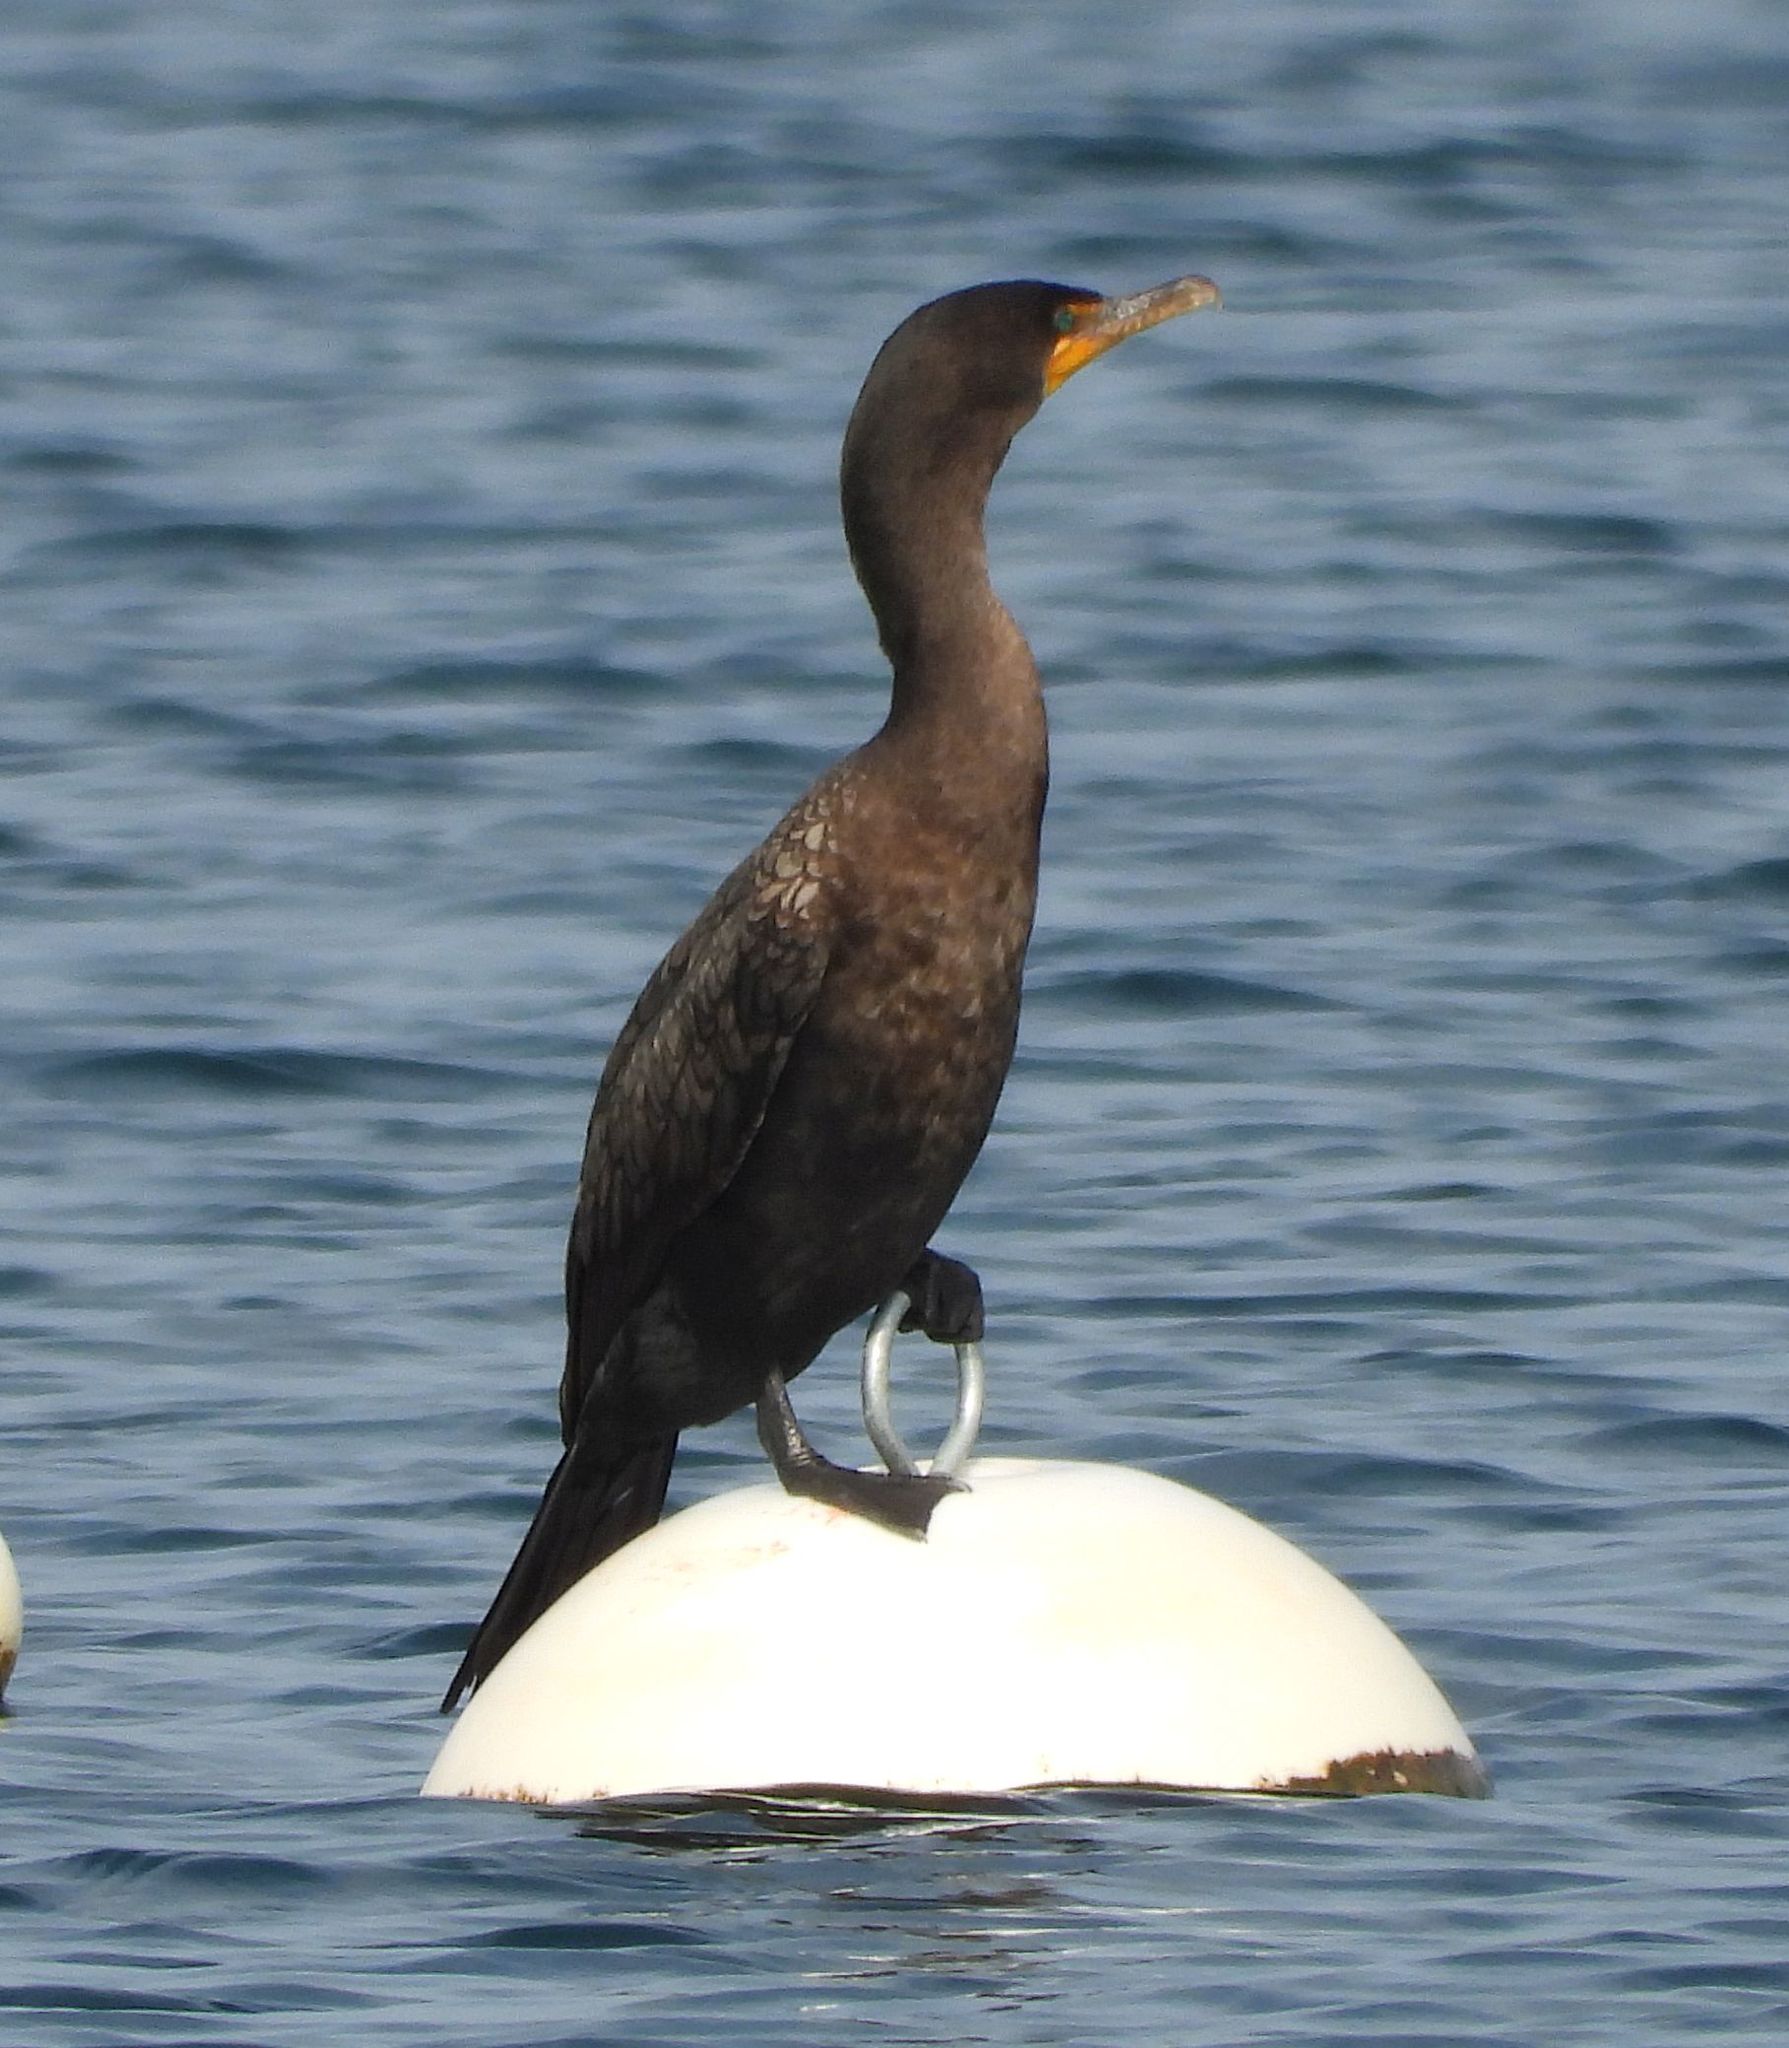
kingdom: Animalia
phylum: Chordata
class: Aves
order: Suliformes
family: Phalacrocoracidae
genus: Phalacrocorax
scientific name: Phalacrocorax auritus
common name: Double-crested cormorant
